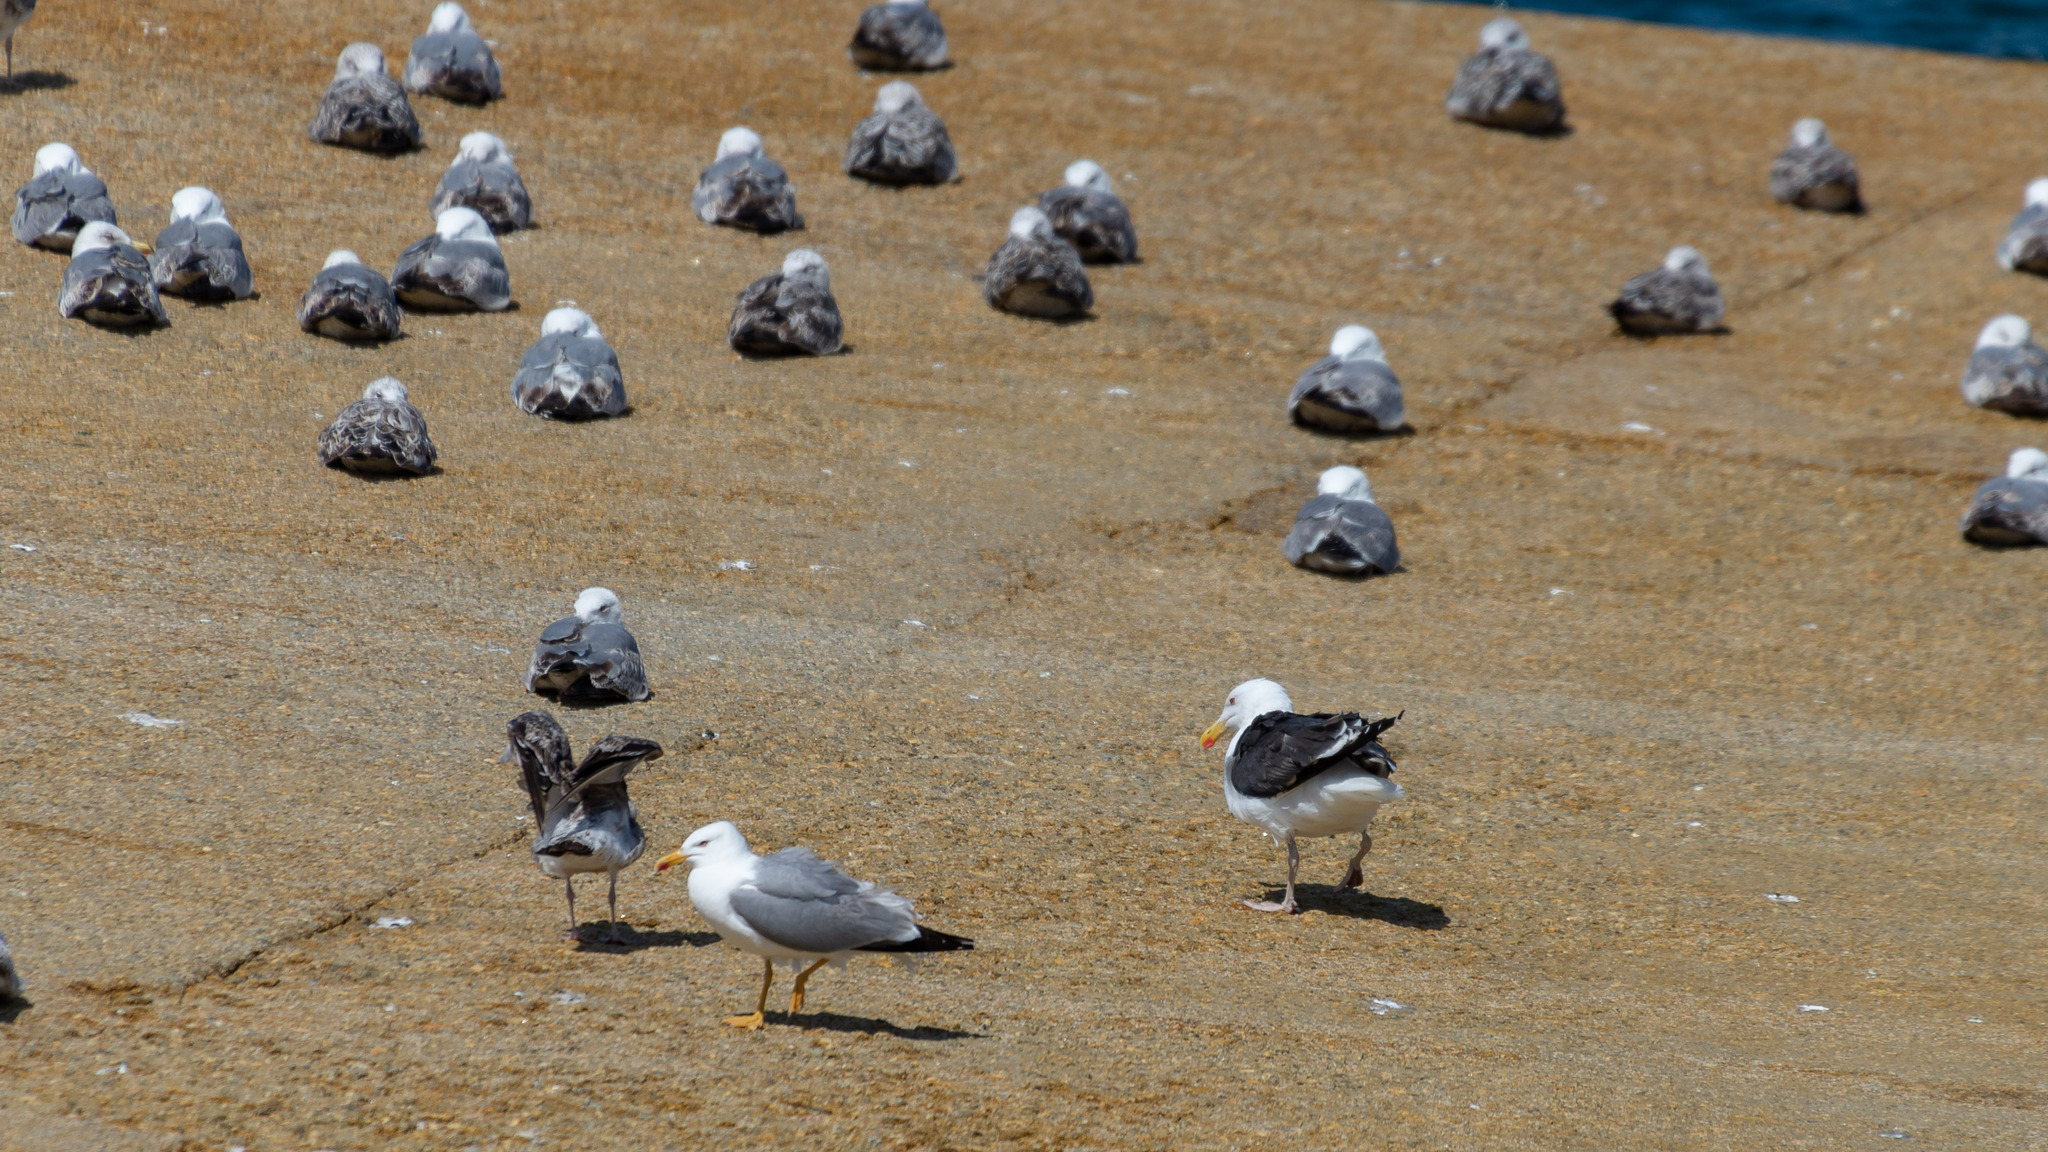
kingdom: Animalia
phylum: Chordata
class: Aves
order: Charadriiformes
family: Laridae
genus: Larus
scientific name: Larus marinus
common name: Great black-backed gull
